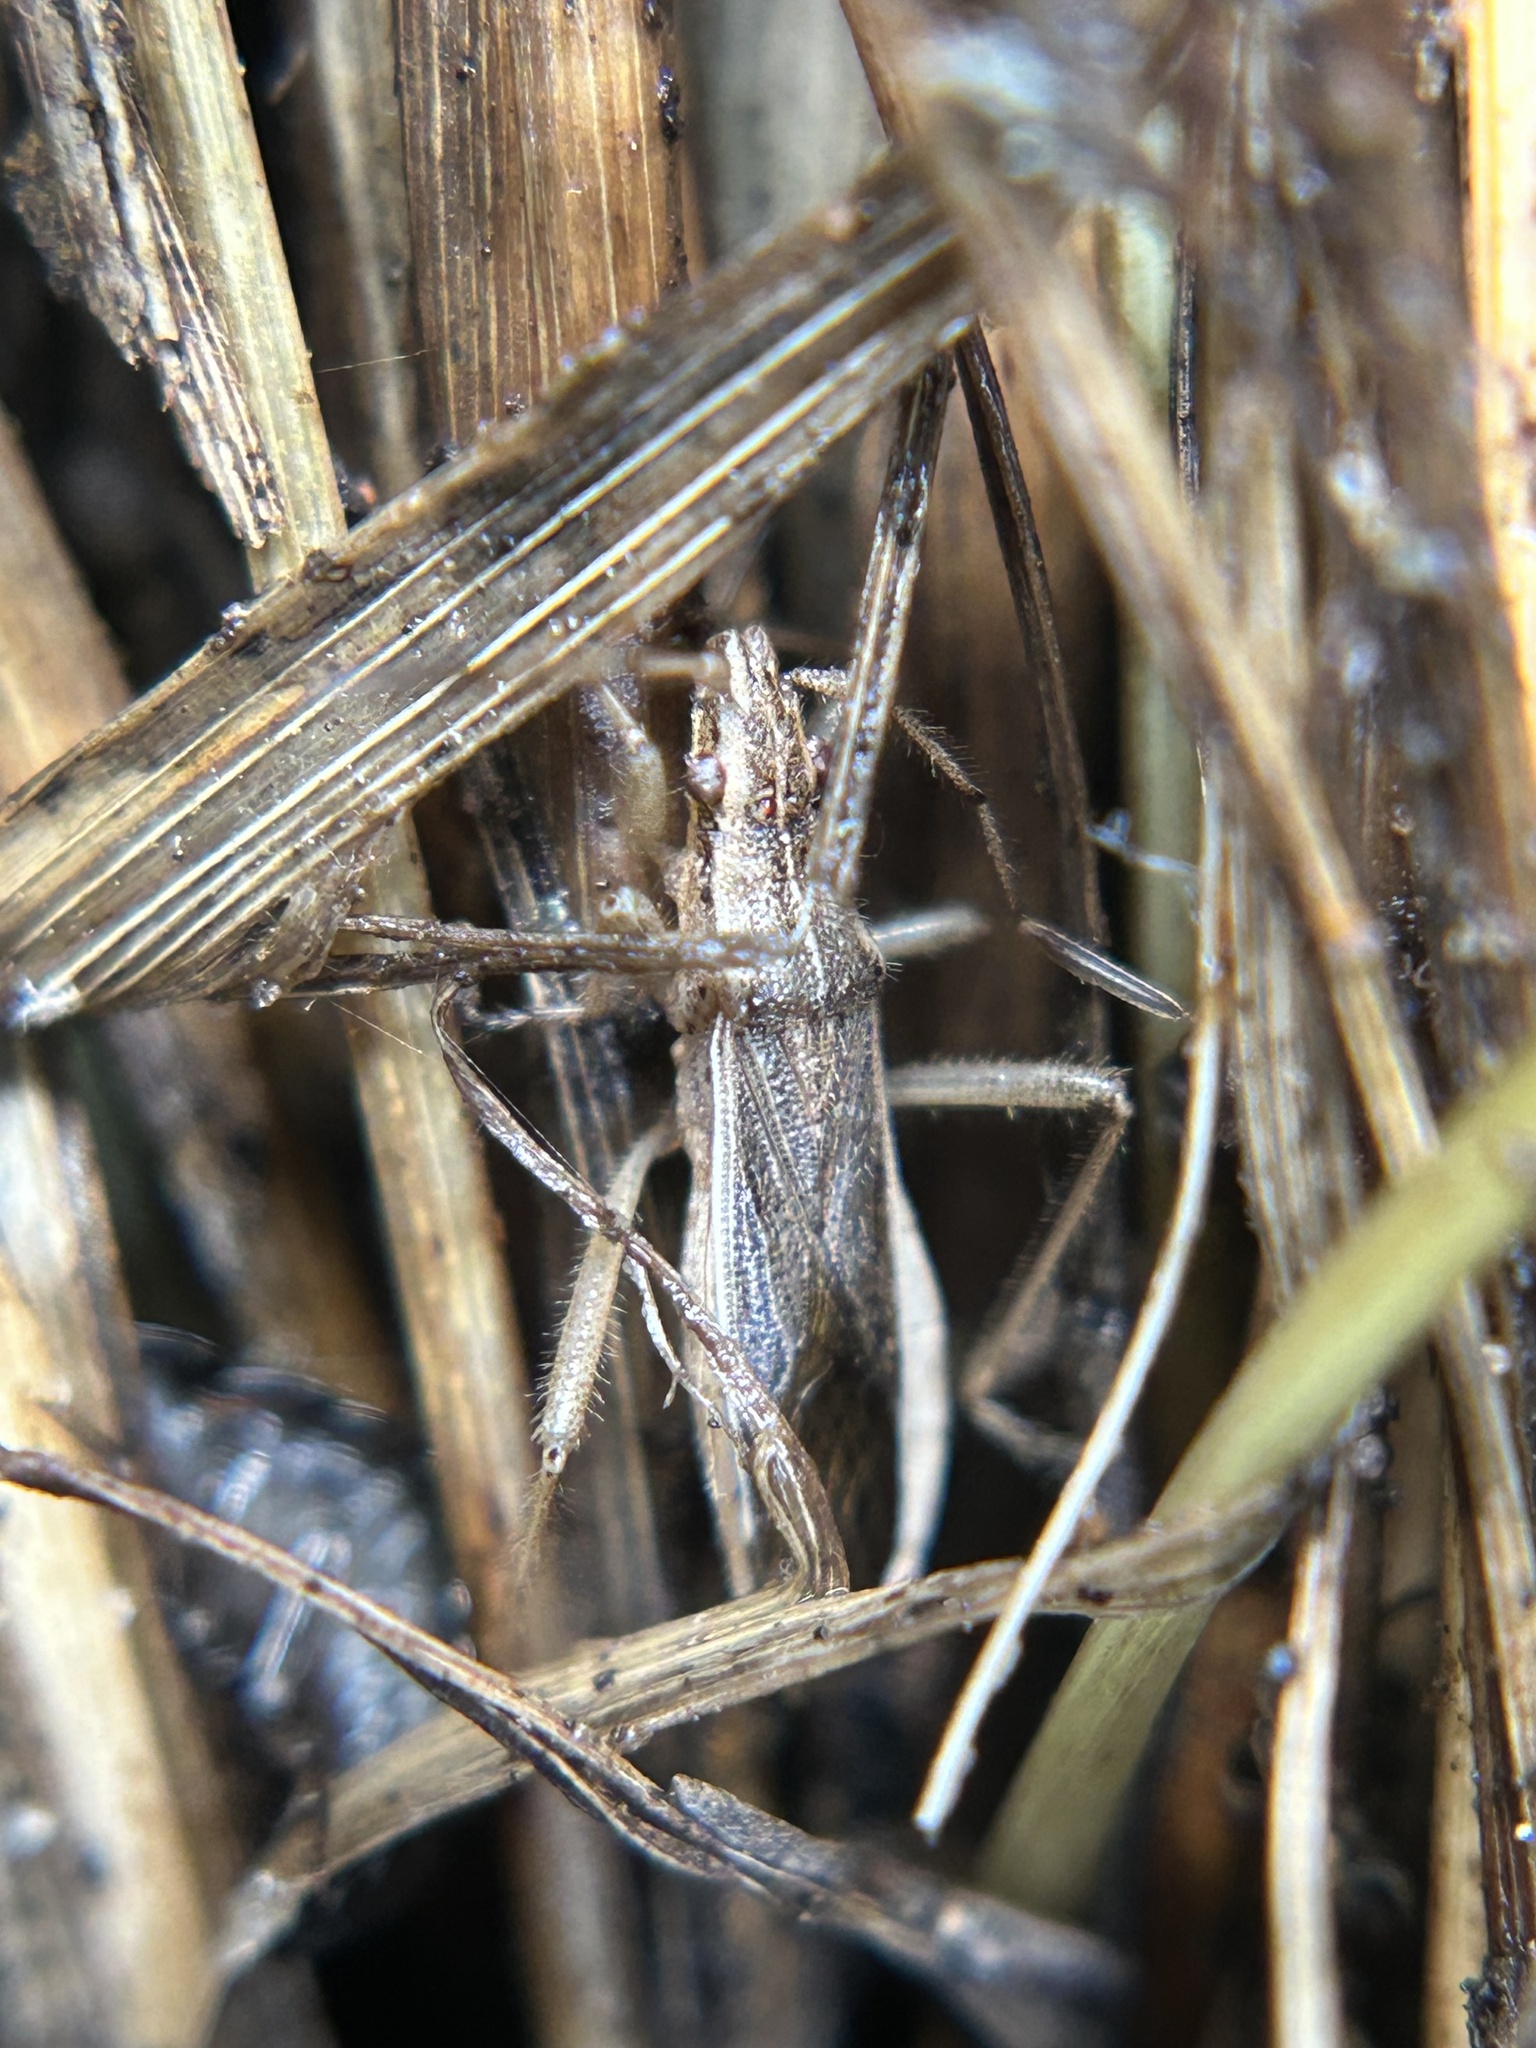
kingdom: Animalia
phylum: Arthropoda
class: Insecta
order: Hemiptera
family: Alydidae
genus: Darmistus
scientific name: Darmistus subvittatus
